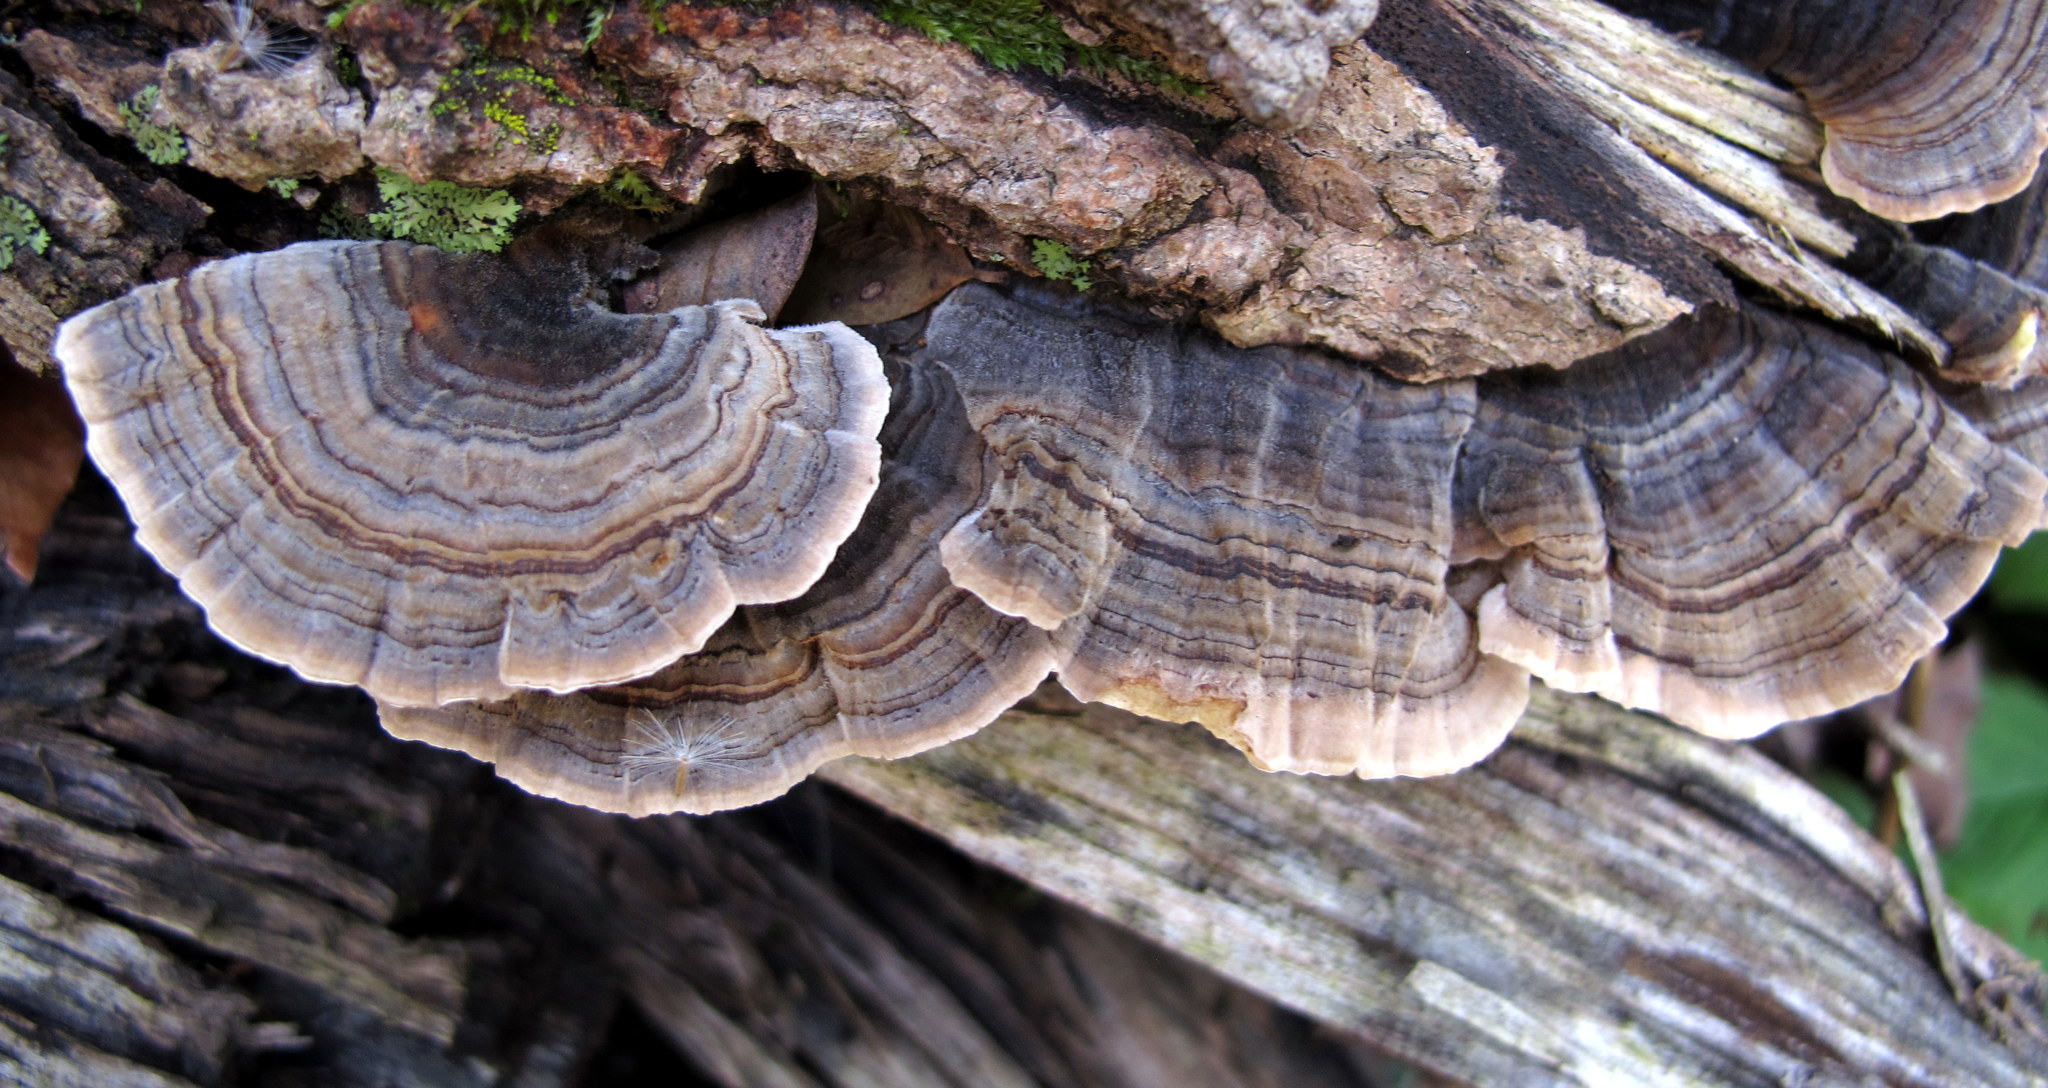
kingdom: Fungi
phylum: Basidiomycota
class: Agaricomycetes
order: Polyporales
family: Polyporaceae
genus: Trametes
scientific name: Trametes versicolor
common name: Turkeytail
